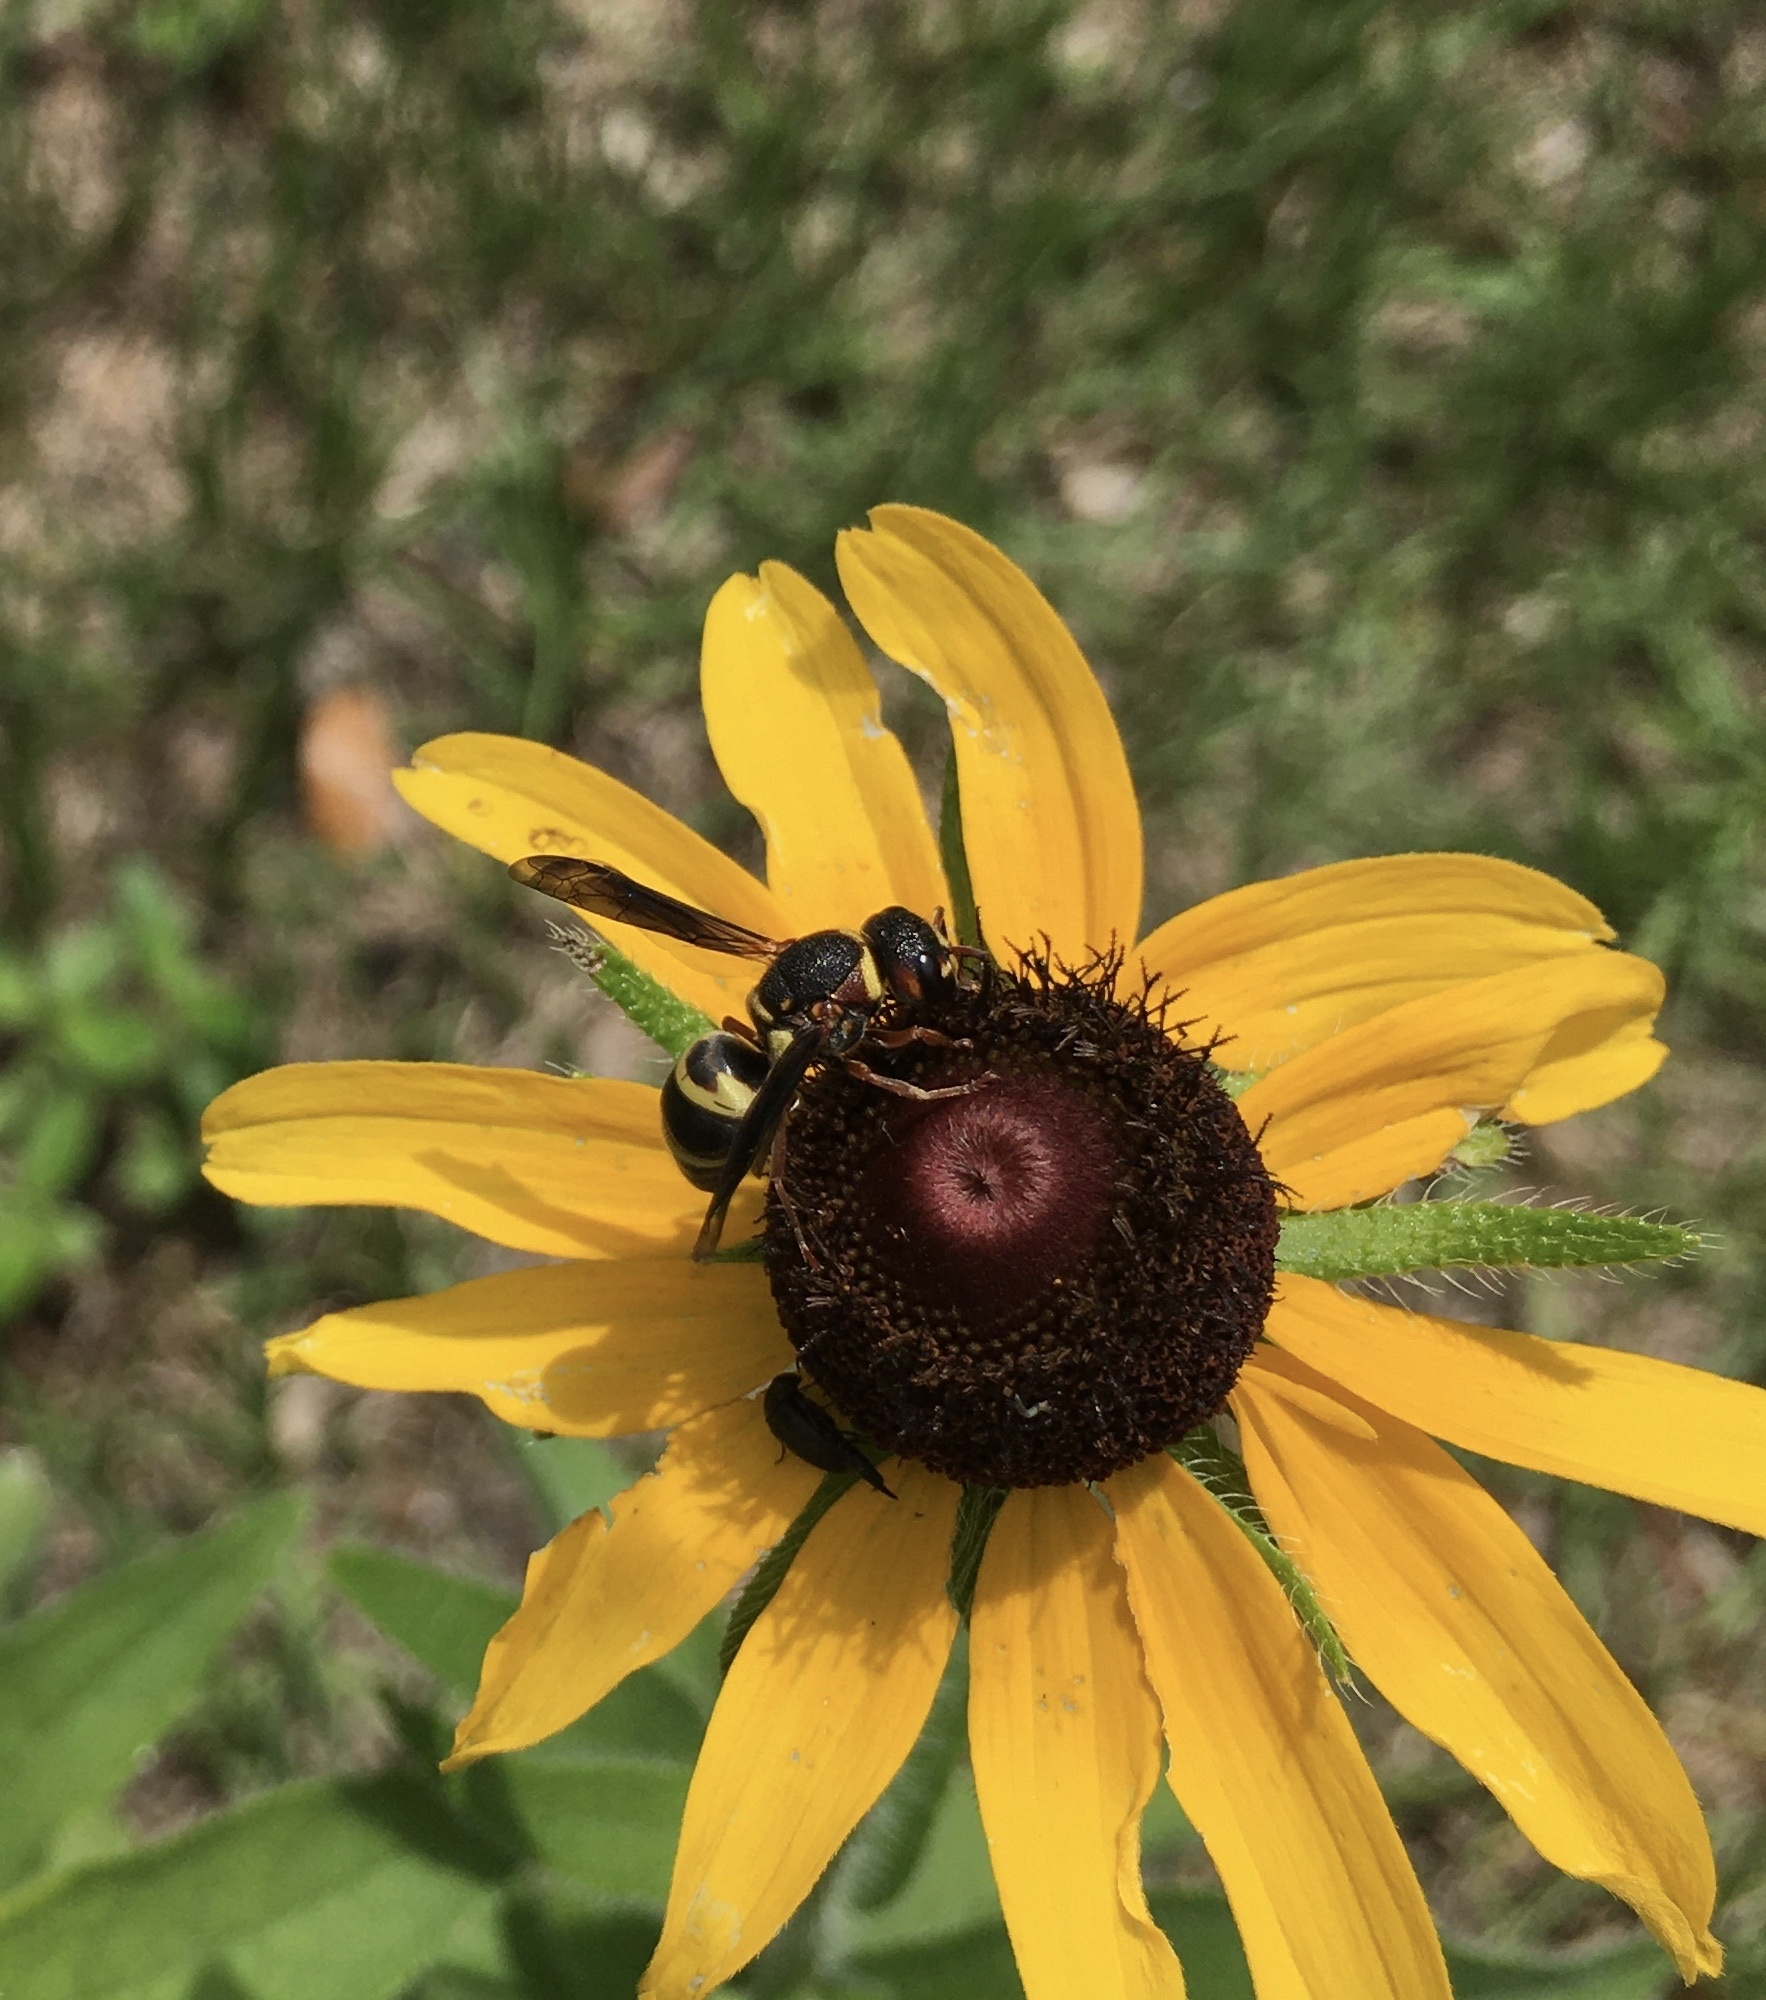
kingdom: Animalia
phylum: Arthropoda
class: Insecta
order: Hymenoptera
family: Eumenidae
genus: Euodynerus
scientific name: Euodynerus annulatus
